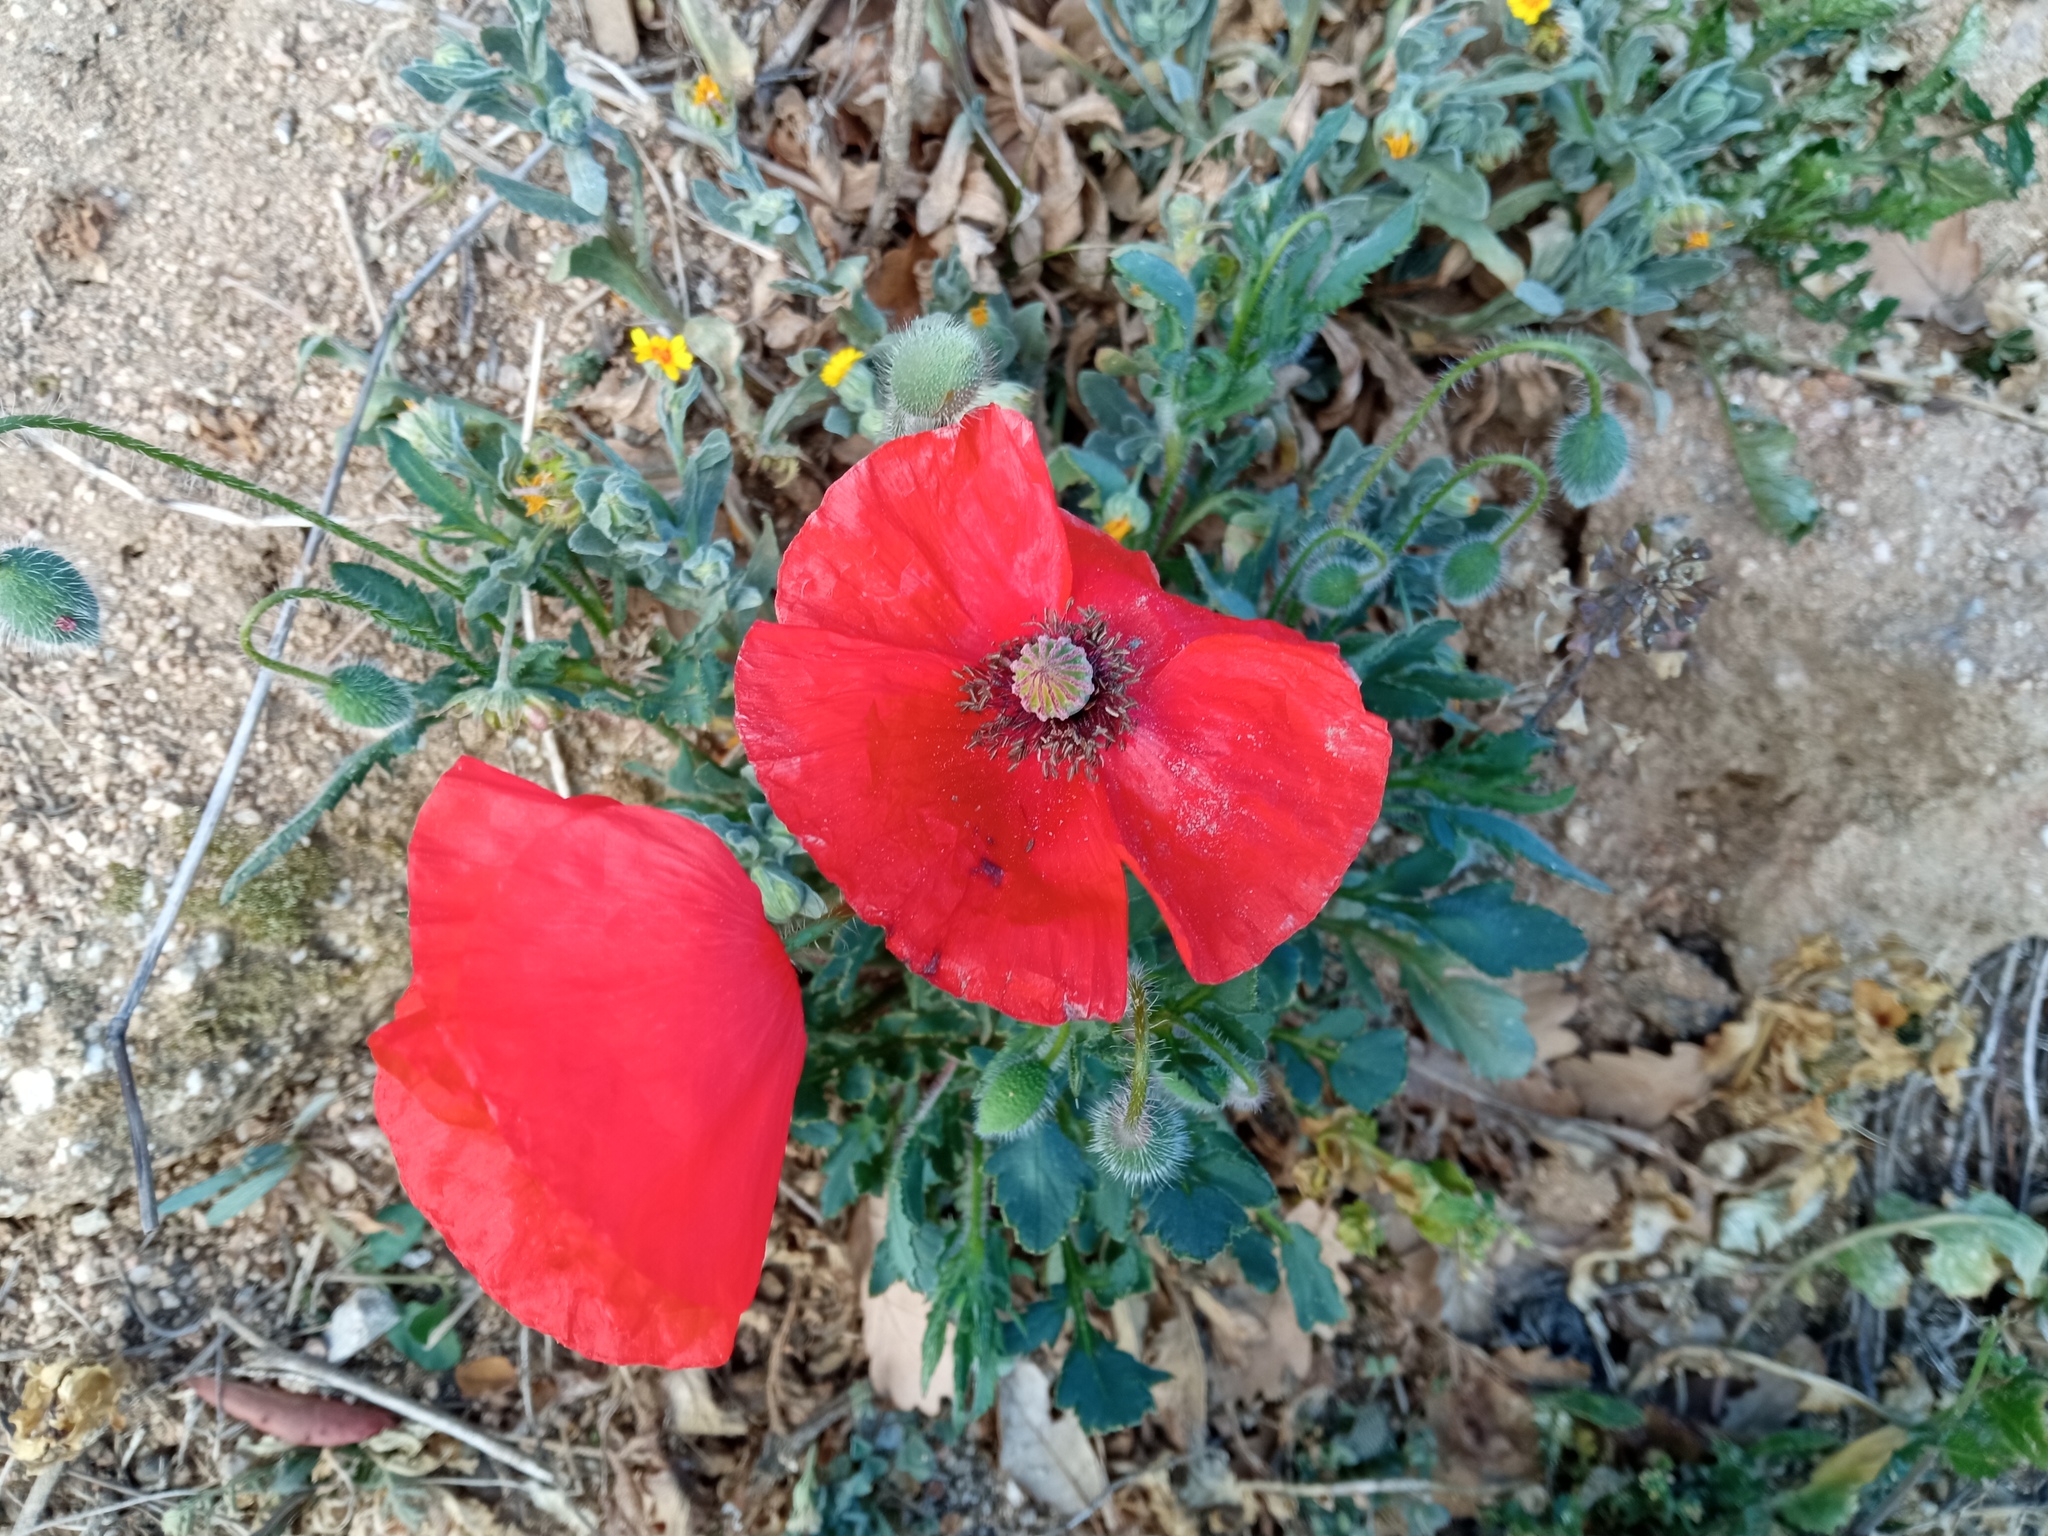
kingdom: Plantae
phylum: Tracheophyta
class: Magnoliopsida
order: Ranunculales
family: Papaveraceae
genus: Papaver
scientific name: Papaver rhoeas
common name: Corn poppy
